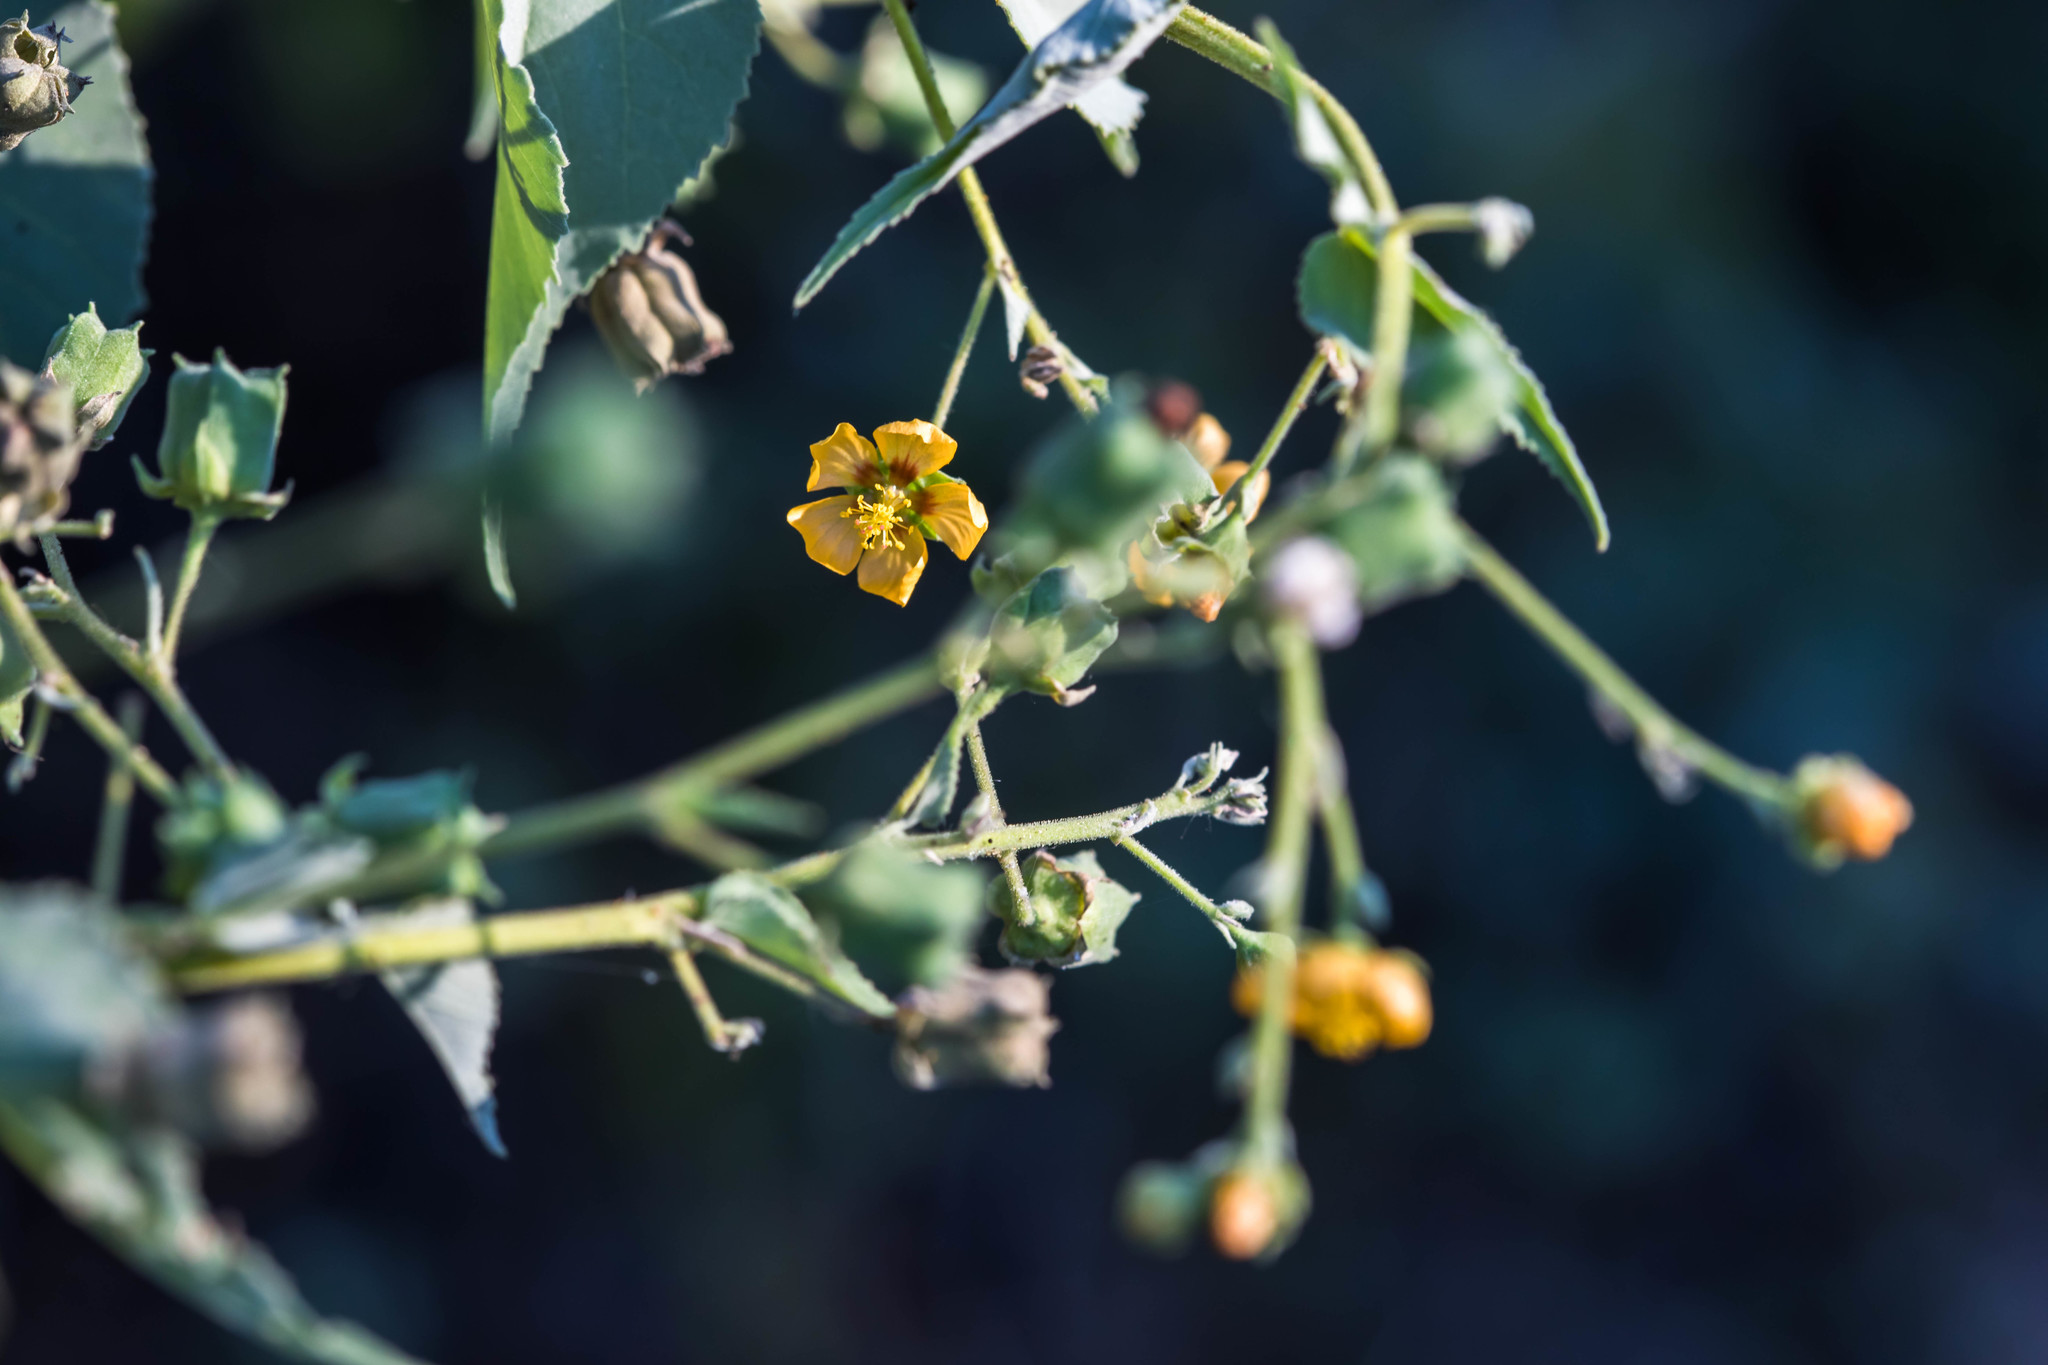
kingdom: Plantae
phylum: Tracheophyta
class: Magnoliopsida
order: Malvales
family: Malvaceae
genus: Abutilon
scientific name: Abutilon trisulcatum
